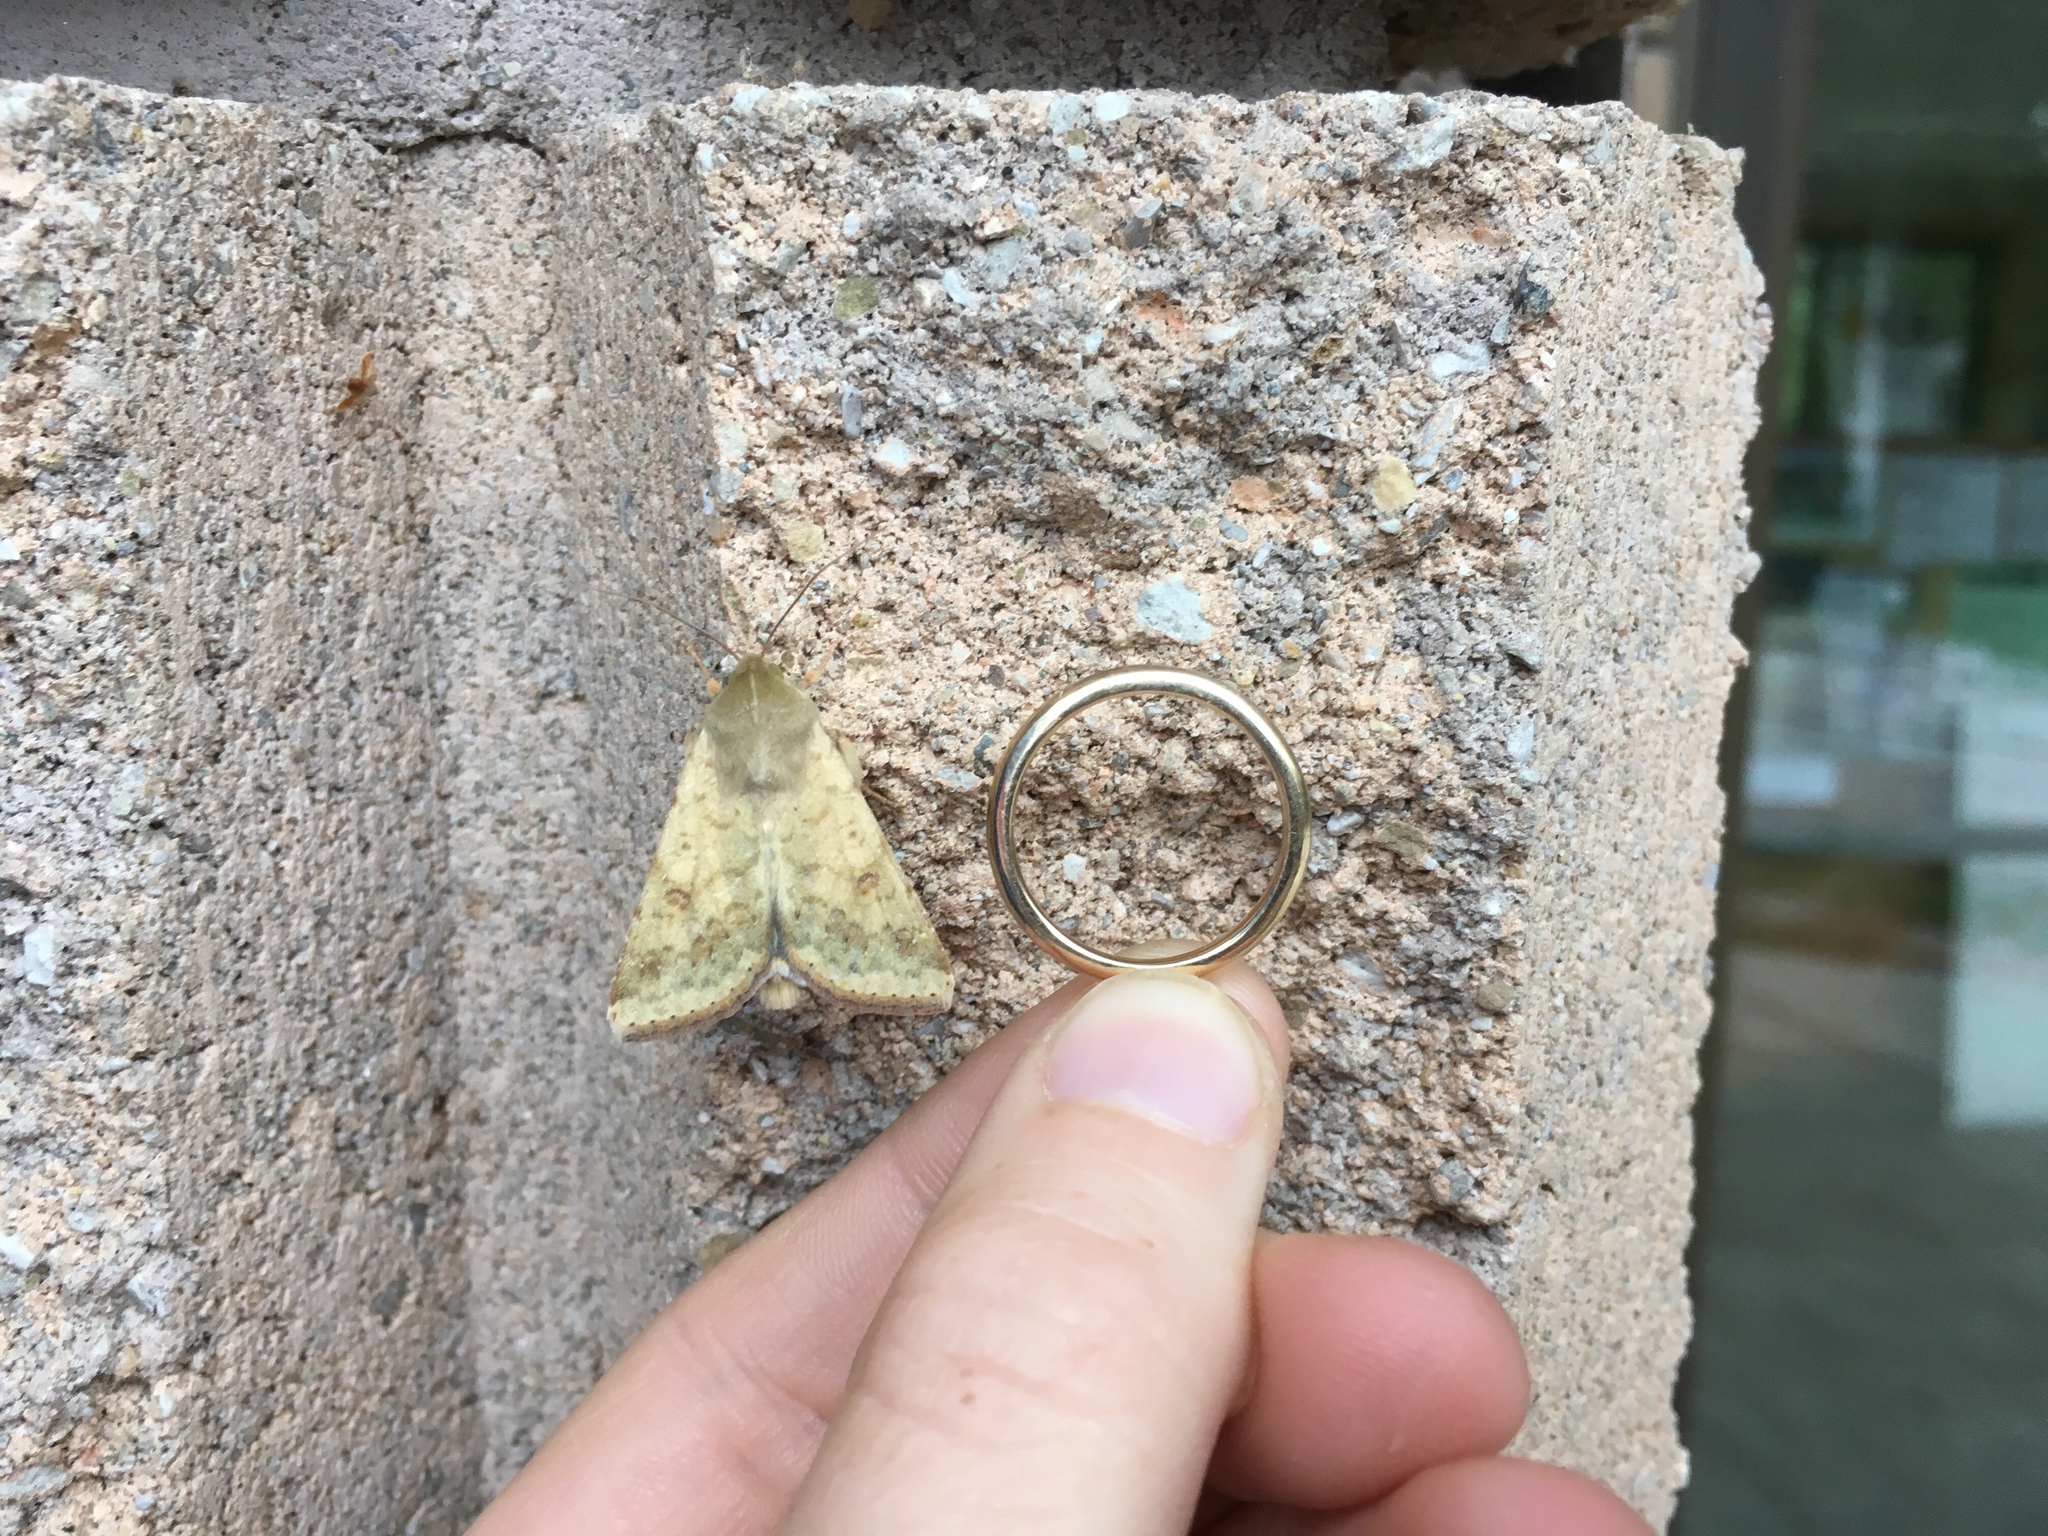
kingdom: Animalia
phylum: Arthropoda
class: Insecta
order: Lepidoptera
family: Noctuidae
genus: Helicoverpa
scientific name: Helicoverpa zea
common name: Bollworm
